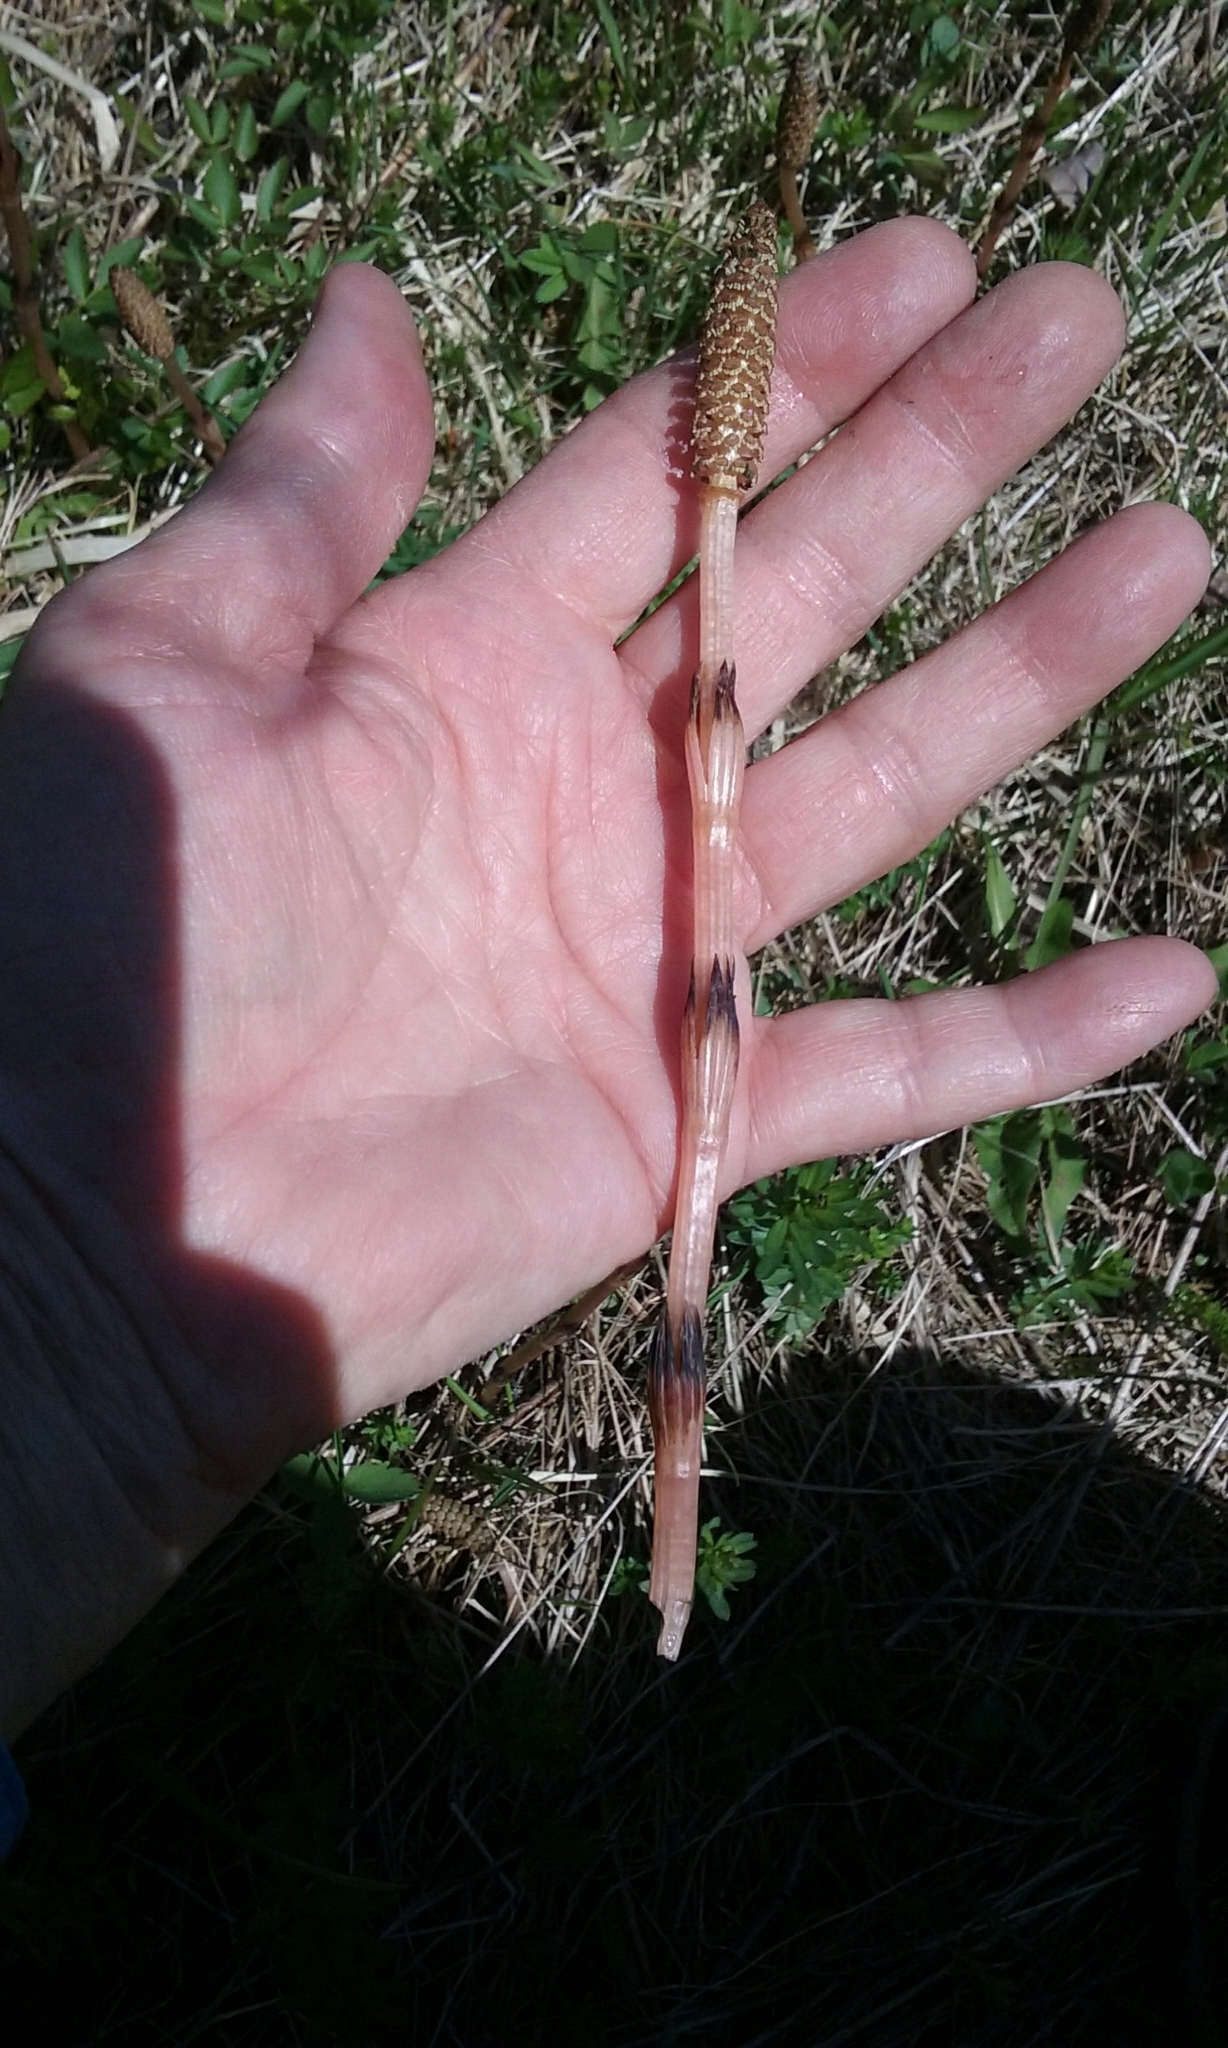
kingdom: Plantae
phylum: Tracheophyta
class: Polypodiopsida
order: Equisetales
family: Equisetaceae
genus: Equisetum
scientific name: Equisetum arvense
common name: Field horsetail
